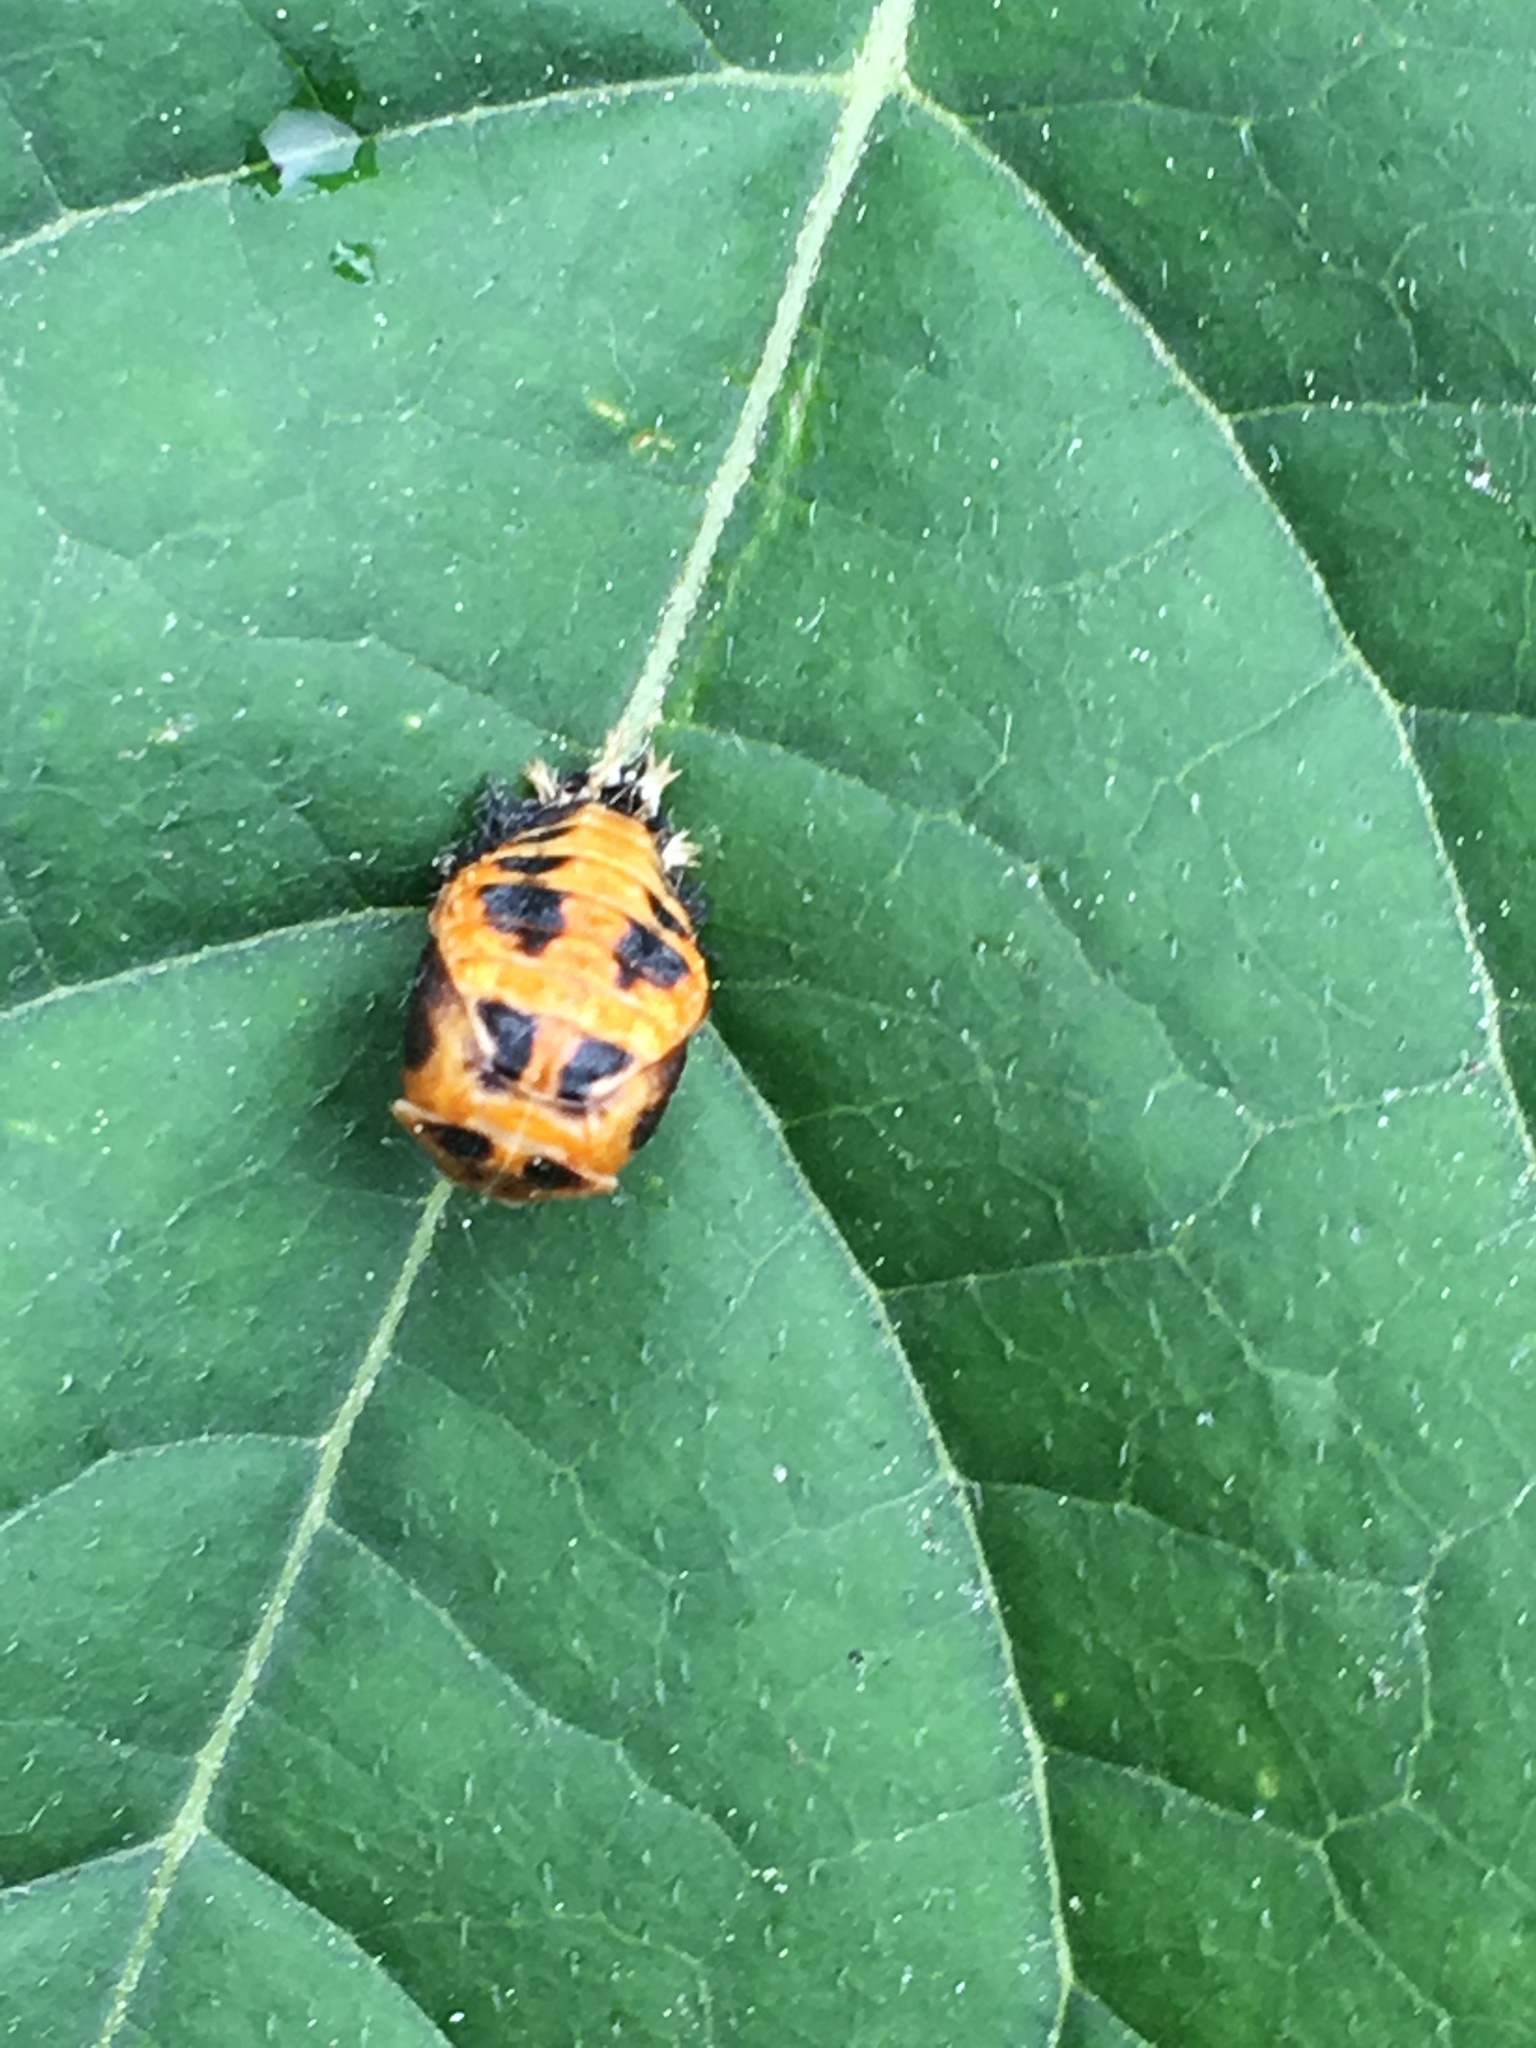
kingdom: Animalia
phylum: Arthropoda
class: Insecta
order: Coleoptera
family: Coccinellidae
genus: Harmonia
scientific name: Harmonia axyridis
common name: Harlequin ladybird
